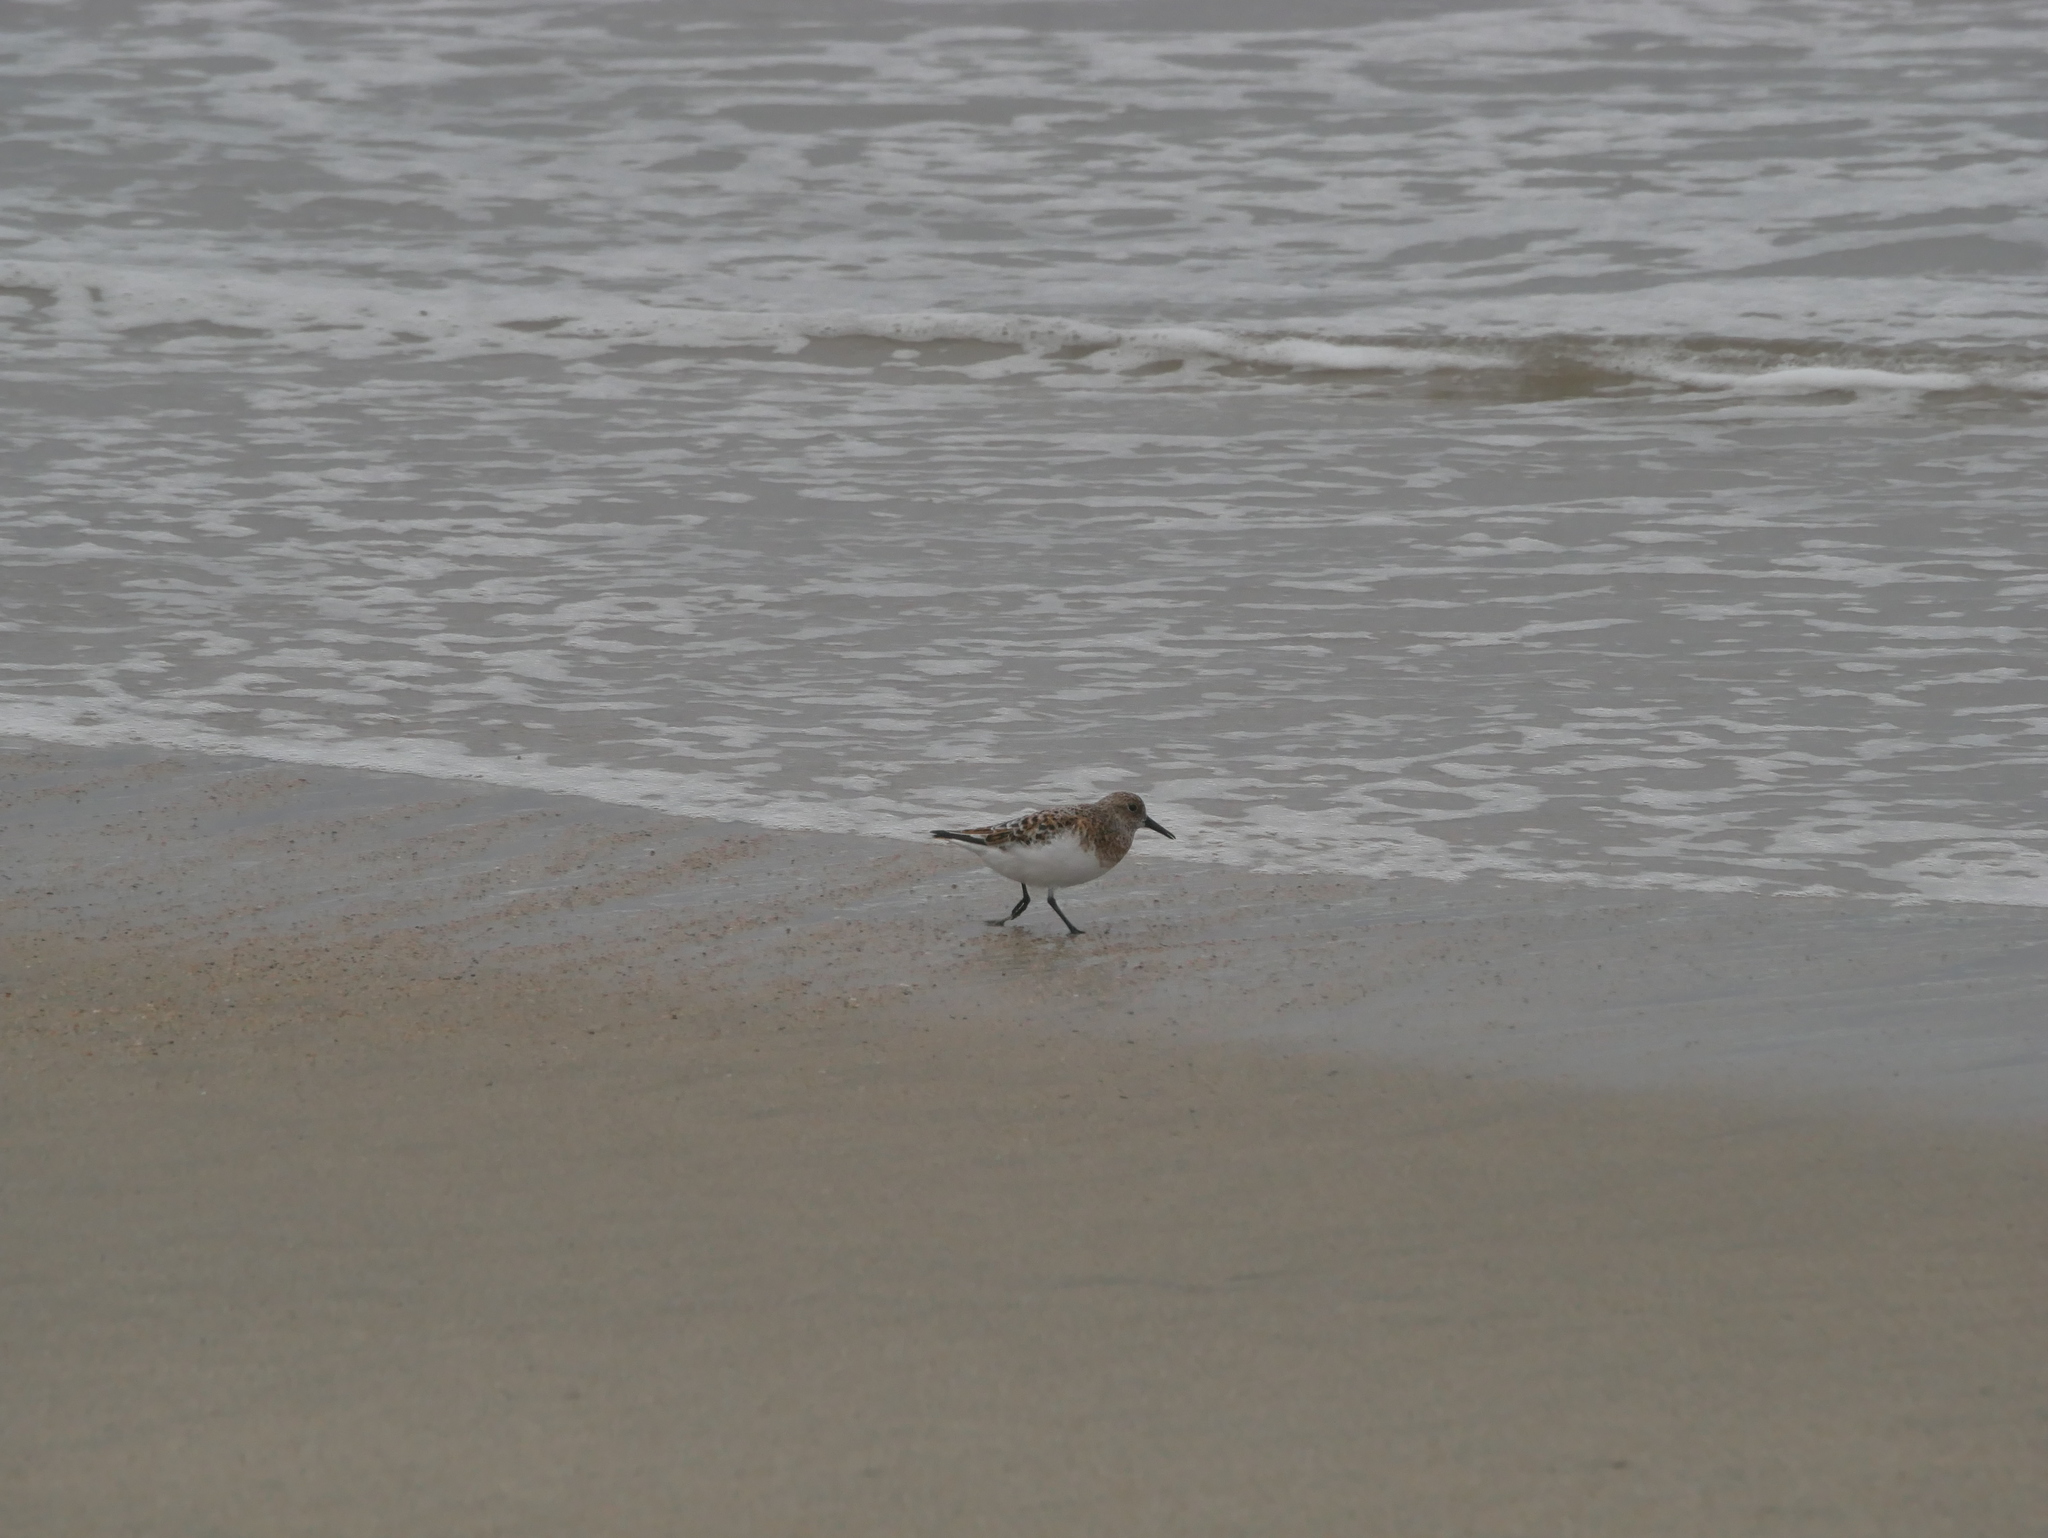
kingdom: Animalia
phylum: Chordata
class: Aves
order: Charadriiformes
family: Scolopacidae
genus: Calidris
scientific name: Calidris alba
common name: Sanderling
